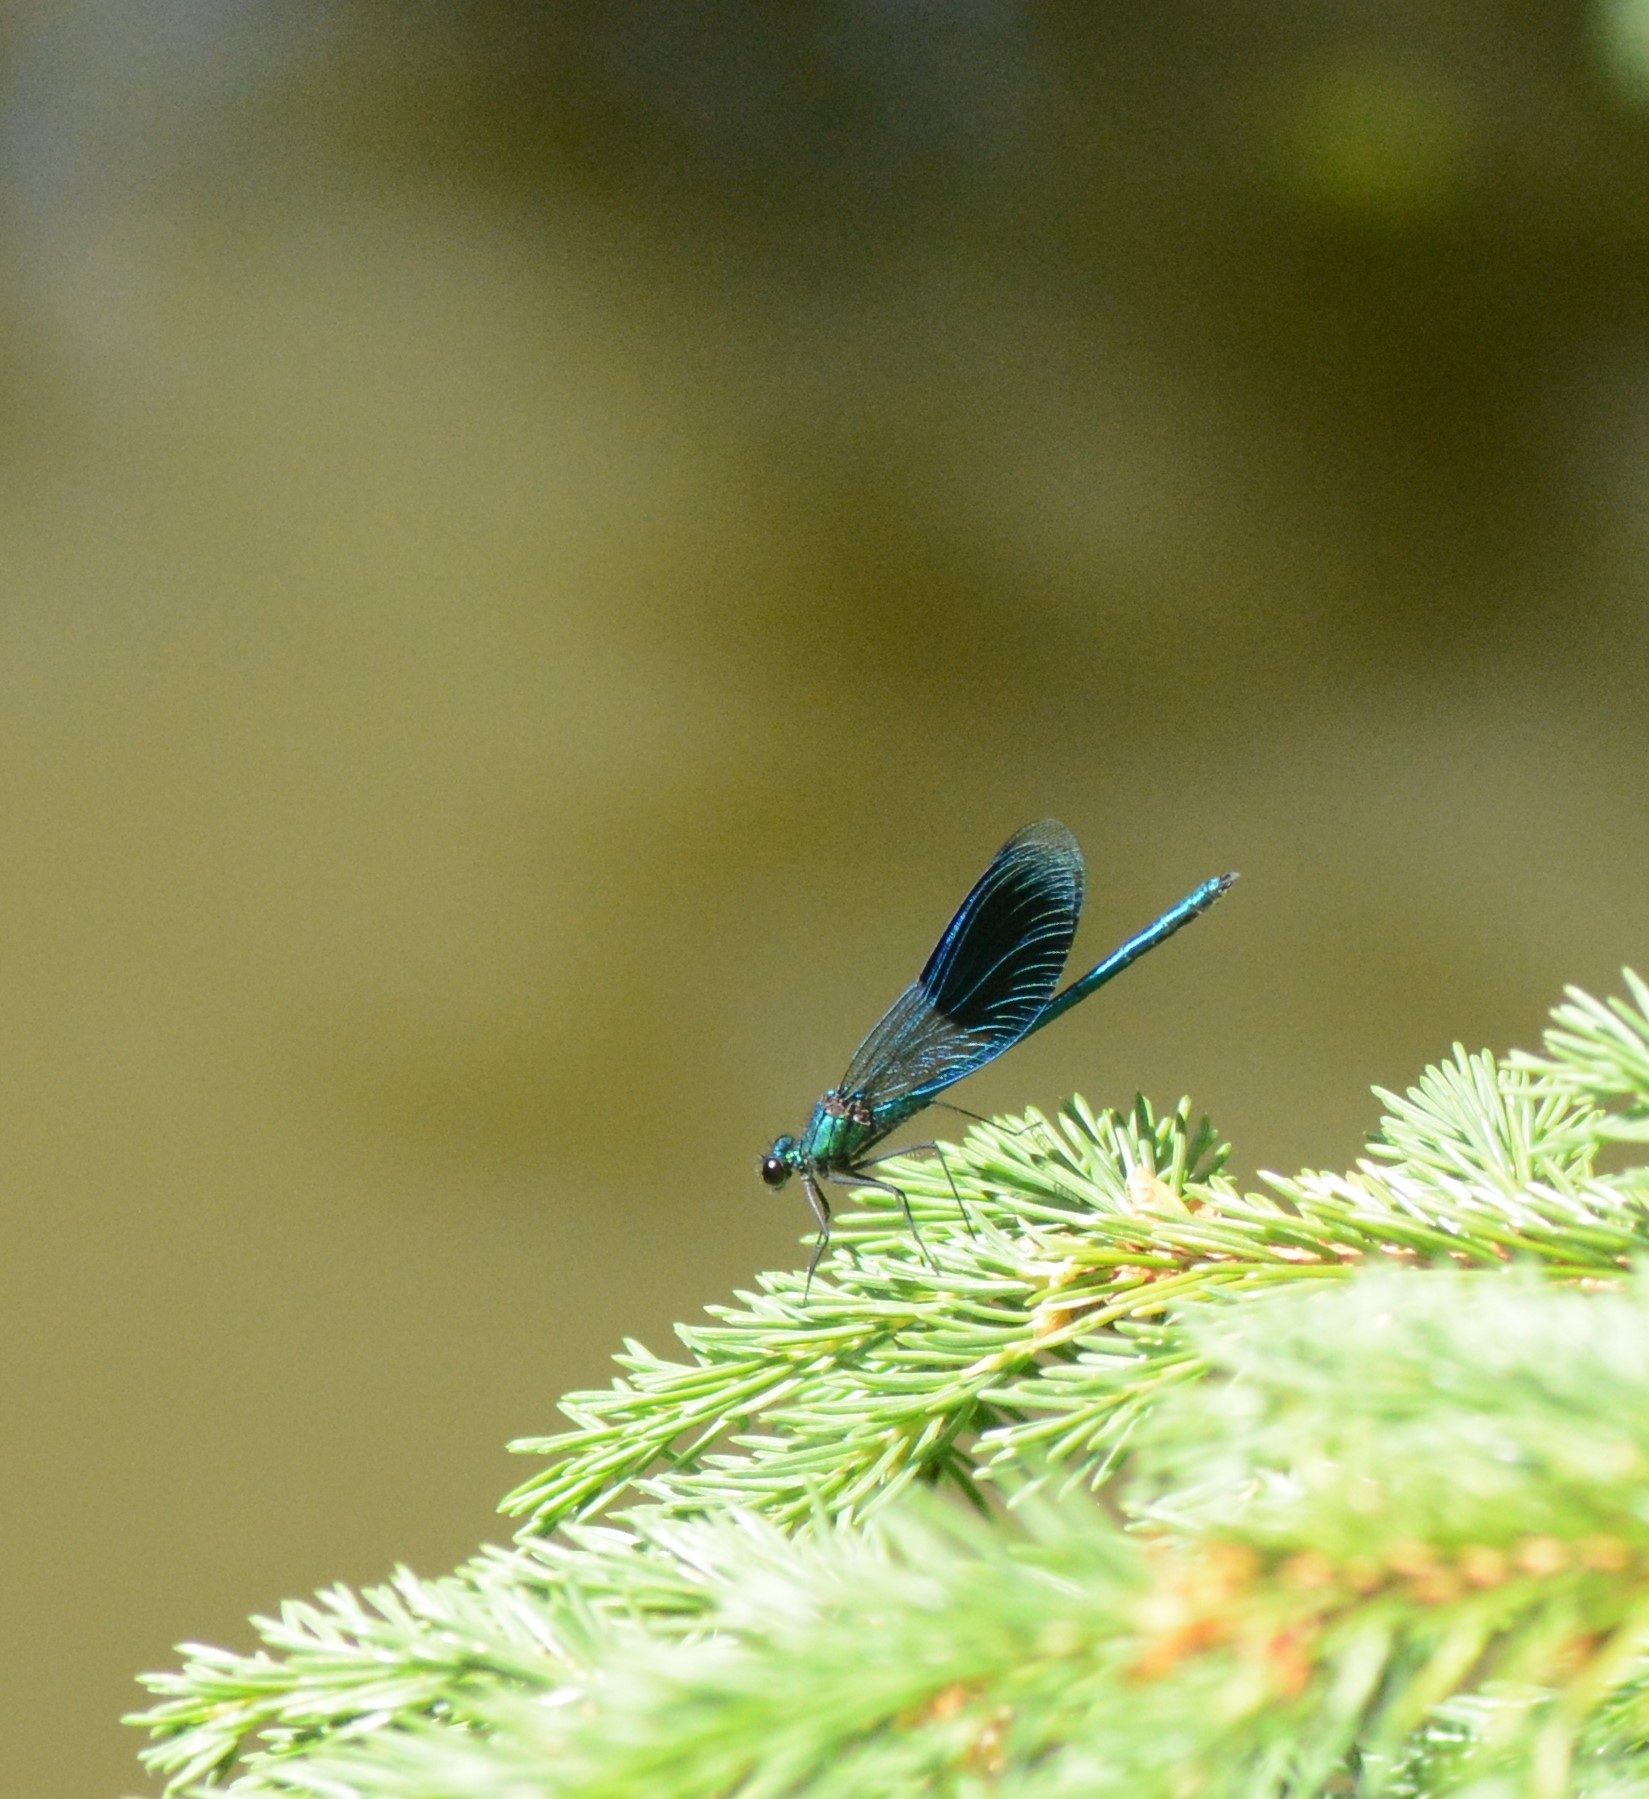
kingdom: Animalia
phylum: Arthropoda
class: Insecta
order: Odonata
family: Calopterygidae
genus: Calopteryx
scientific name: Calopteryx splendens
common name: Banded demoiselle
